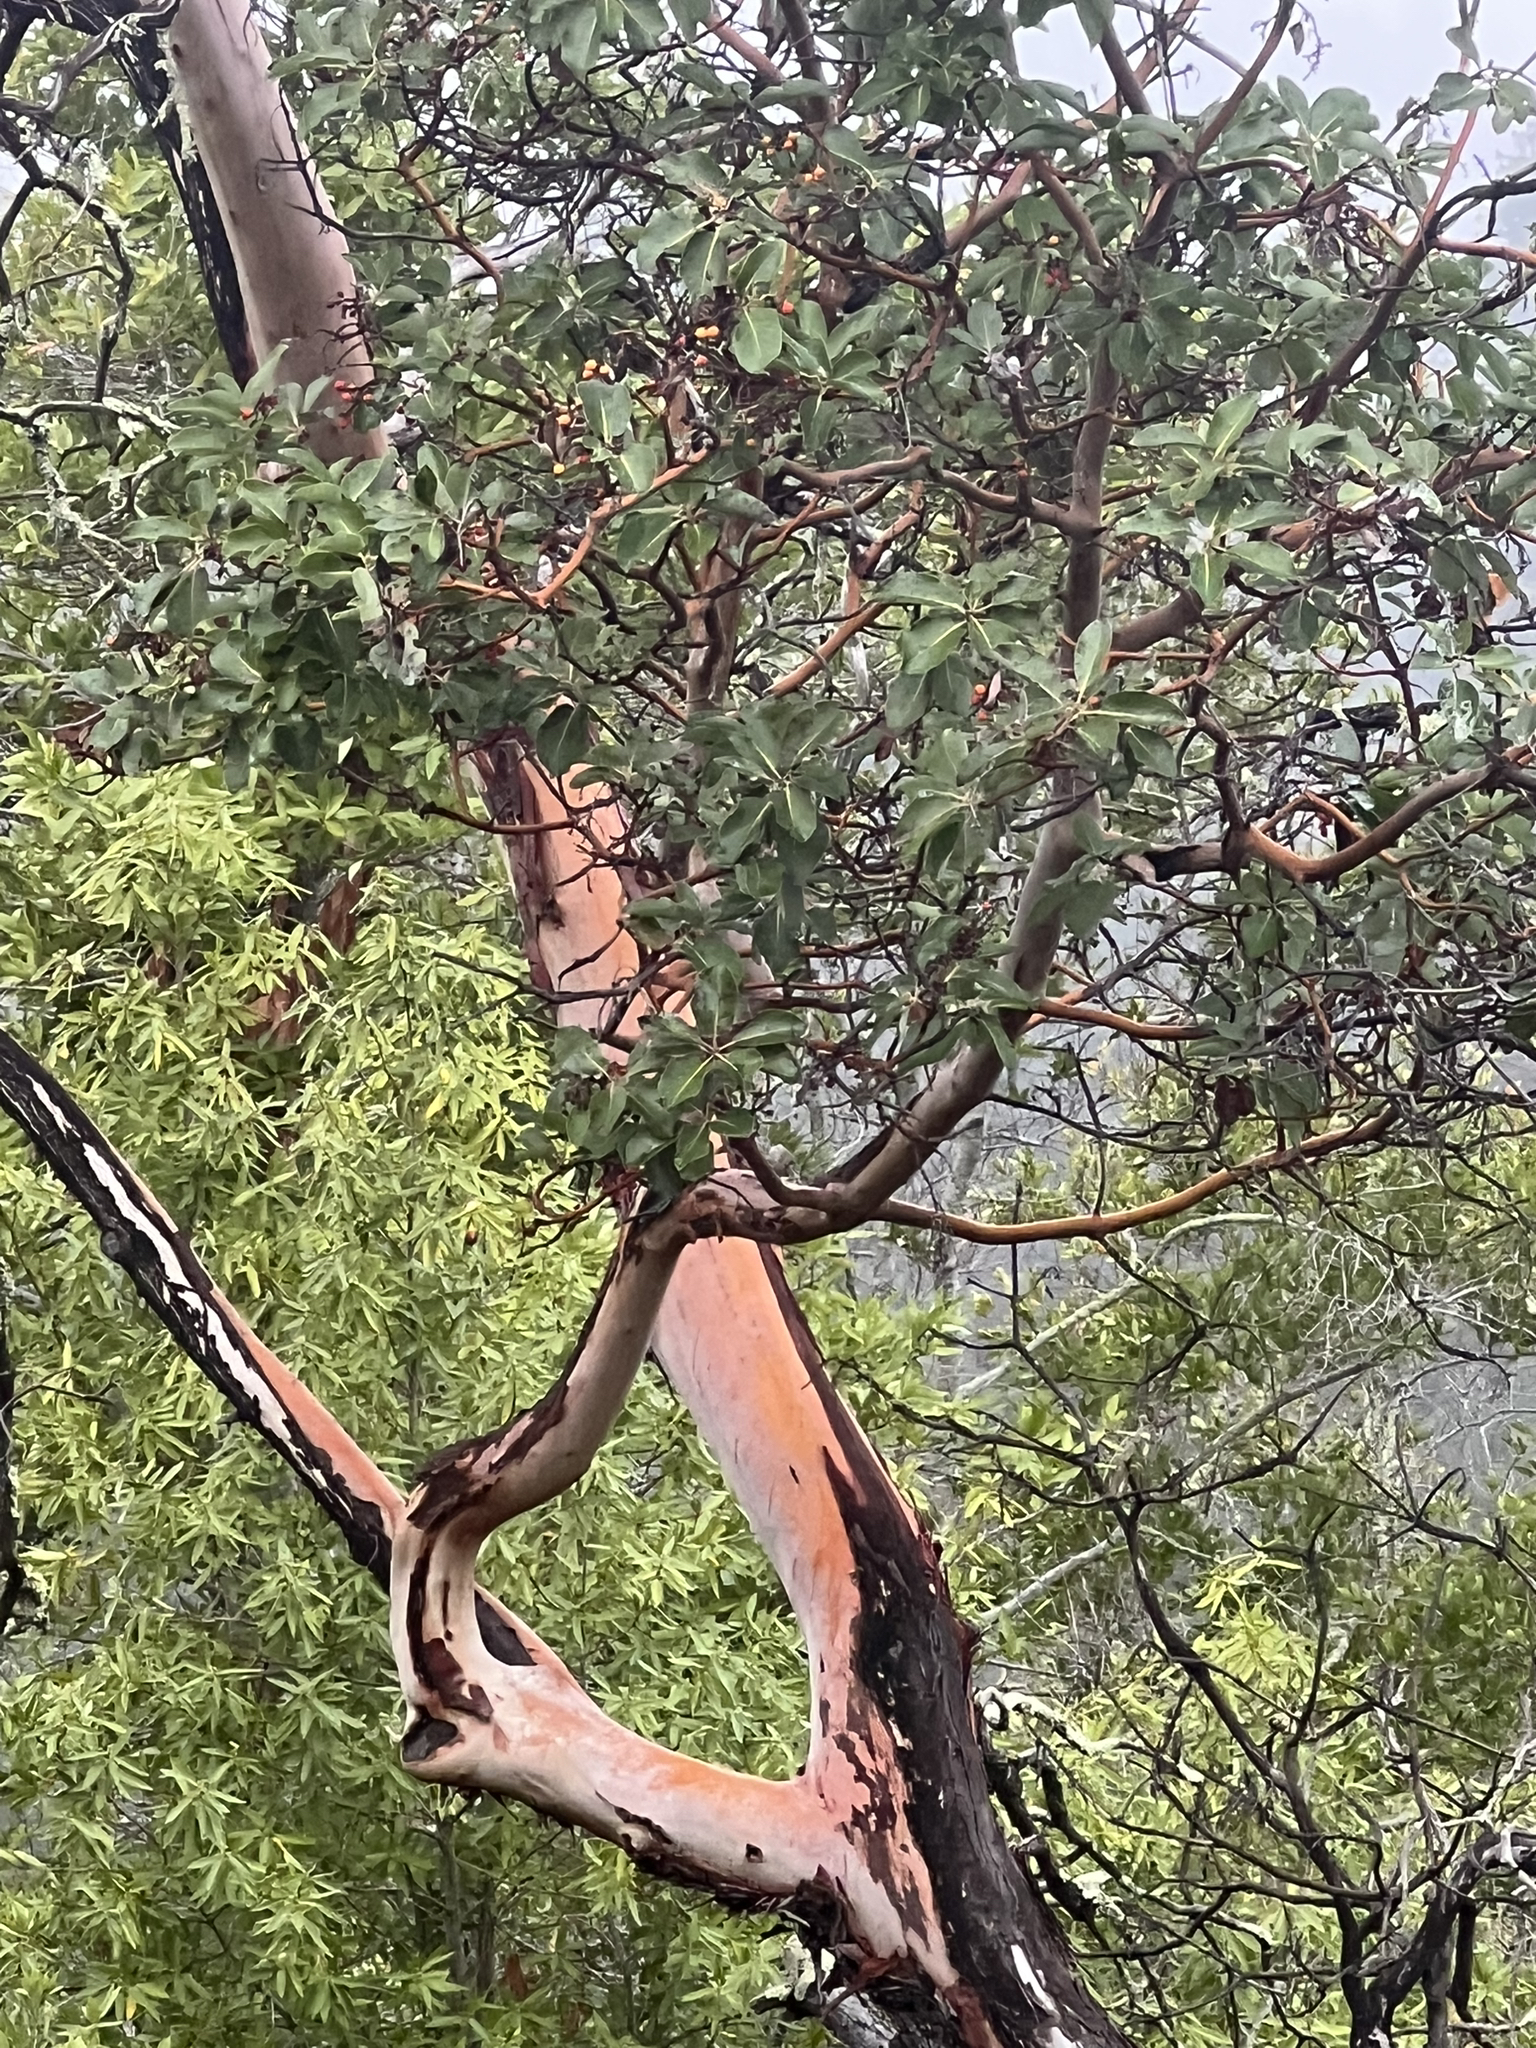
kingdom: Plantae
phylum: Tracheophyta
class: Magnoliopsida
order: Ericales
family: Ericaceae
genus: Arbutus
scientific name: Arbutus menziesii
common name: Pacific madrone
